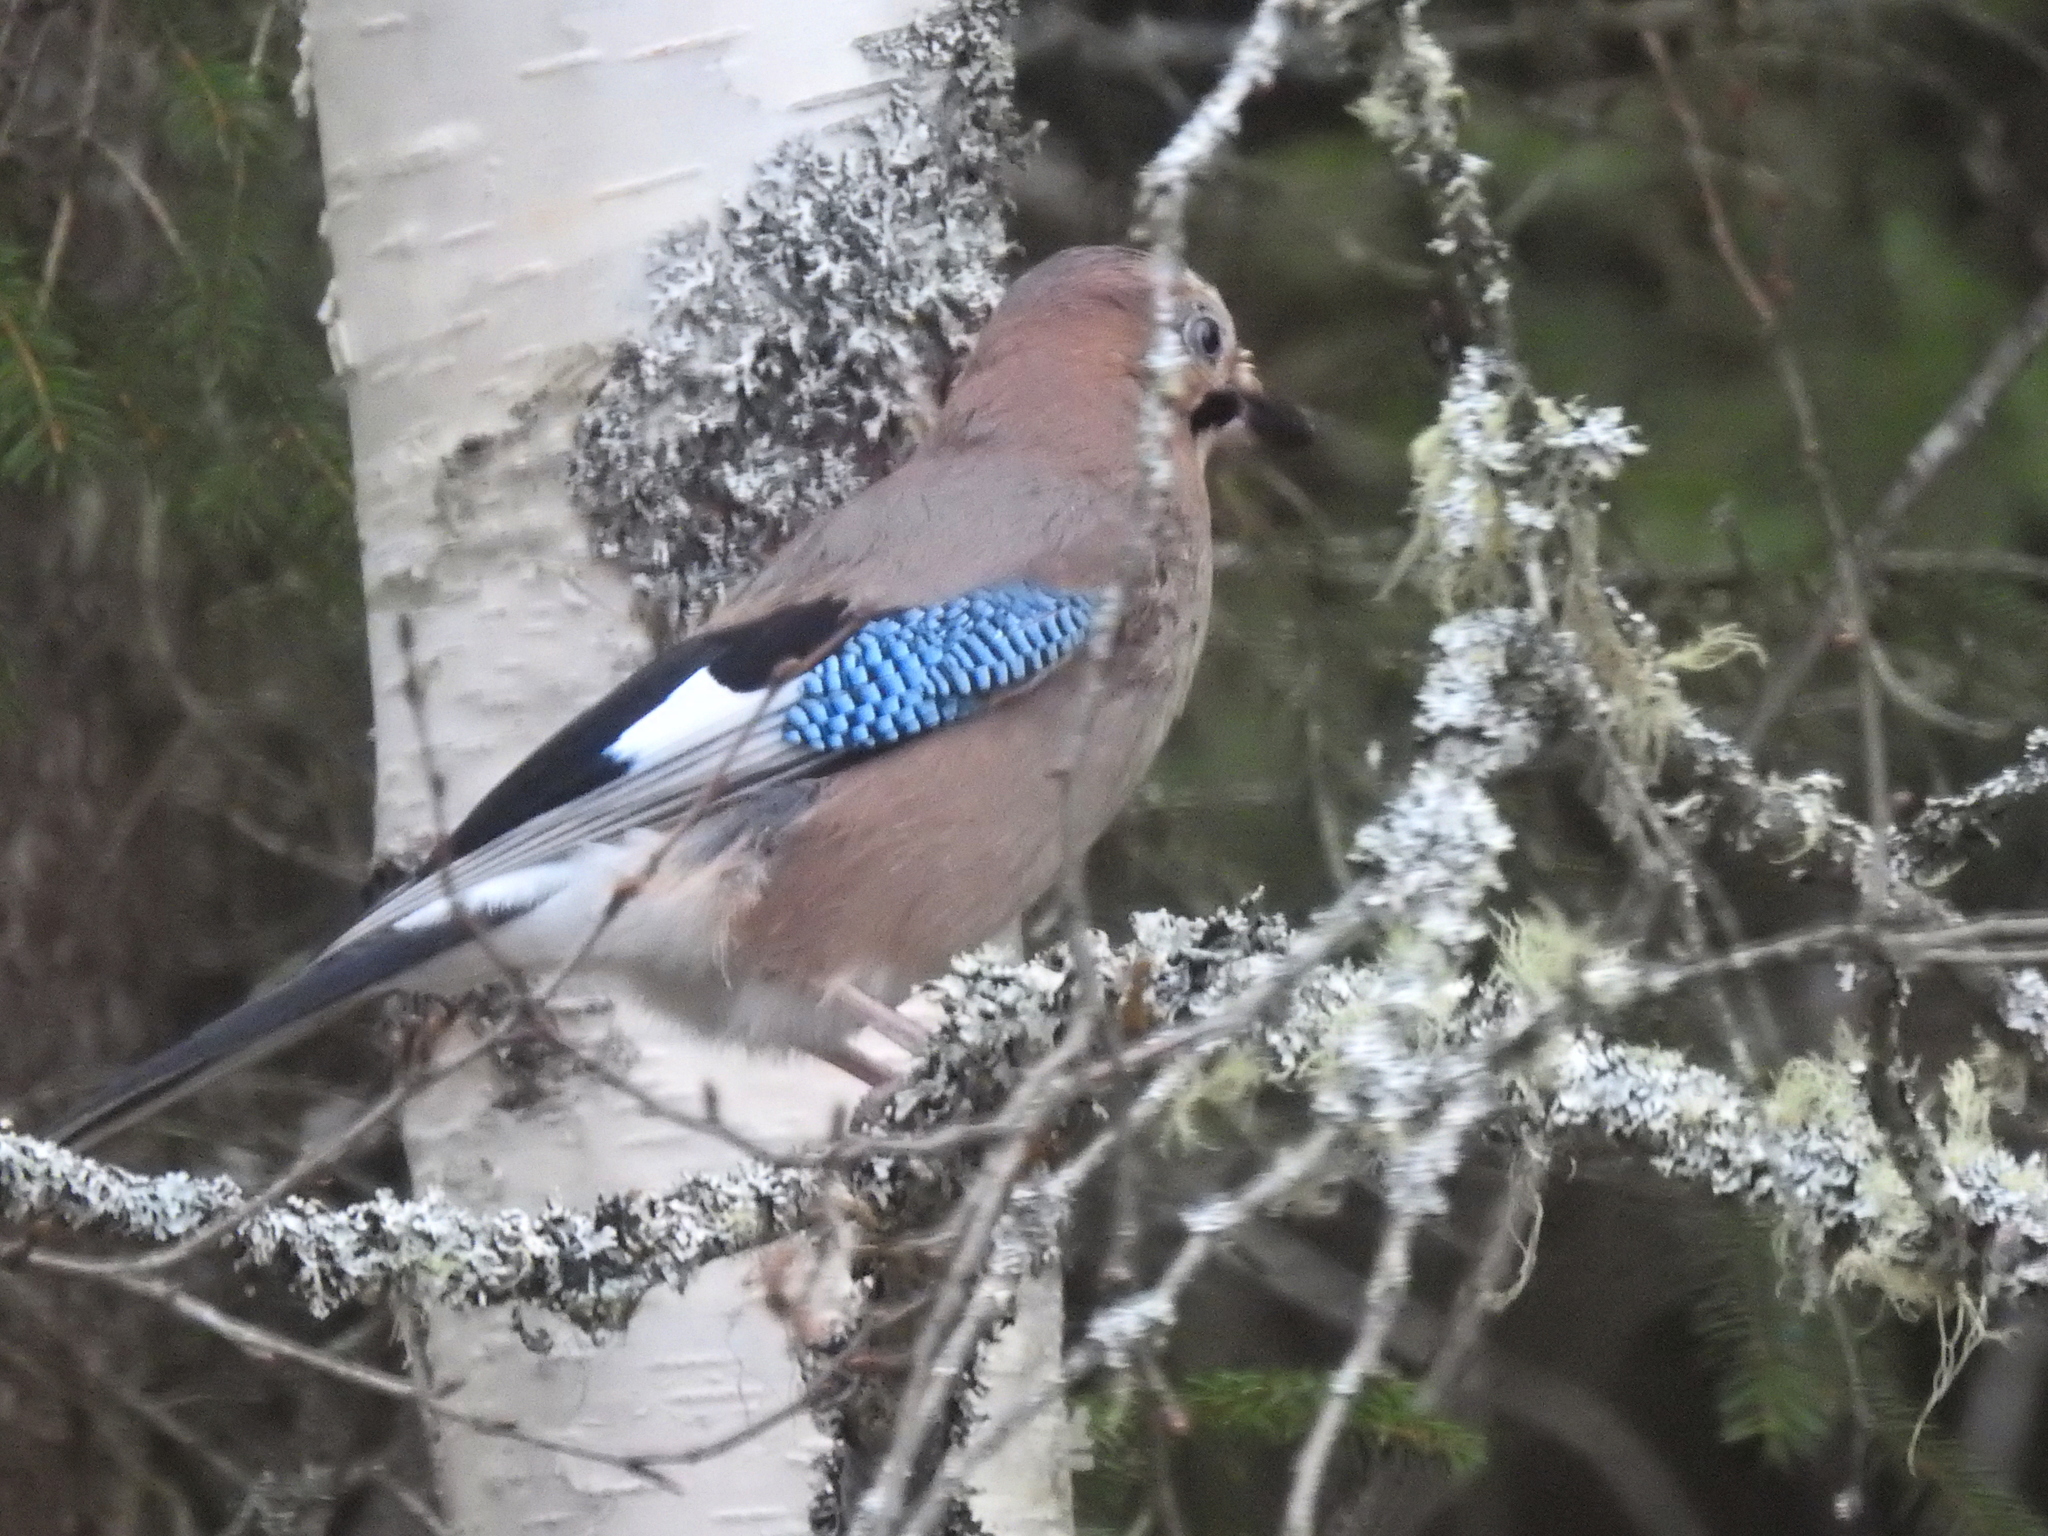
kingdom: Animalia
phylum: Chordata
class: Aves
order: Passeriformes
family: Corvidae
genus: Garrulus
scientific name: Garrulus glandarius
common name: Eurasian jay
